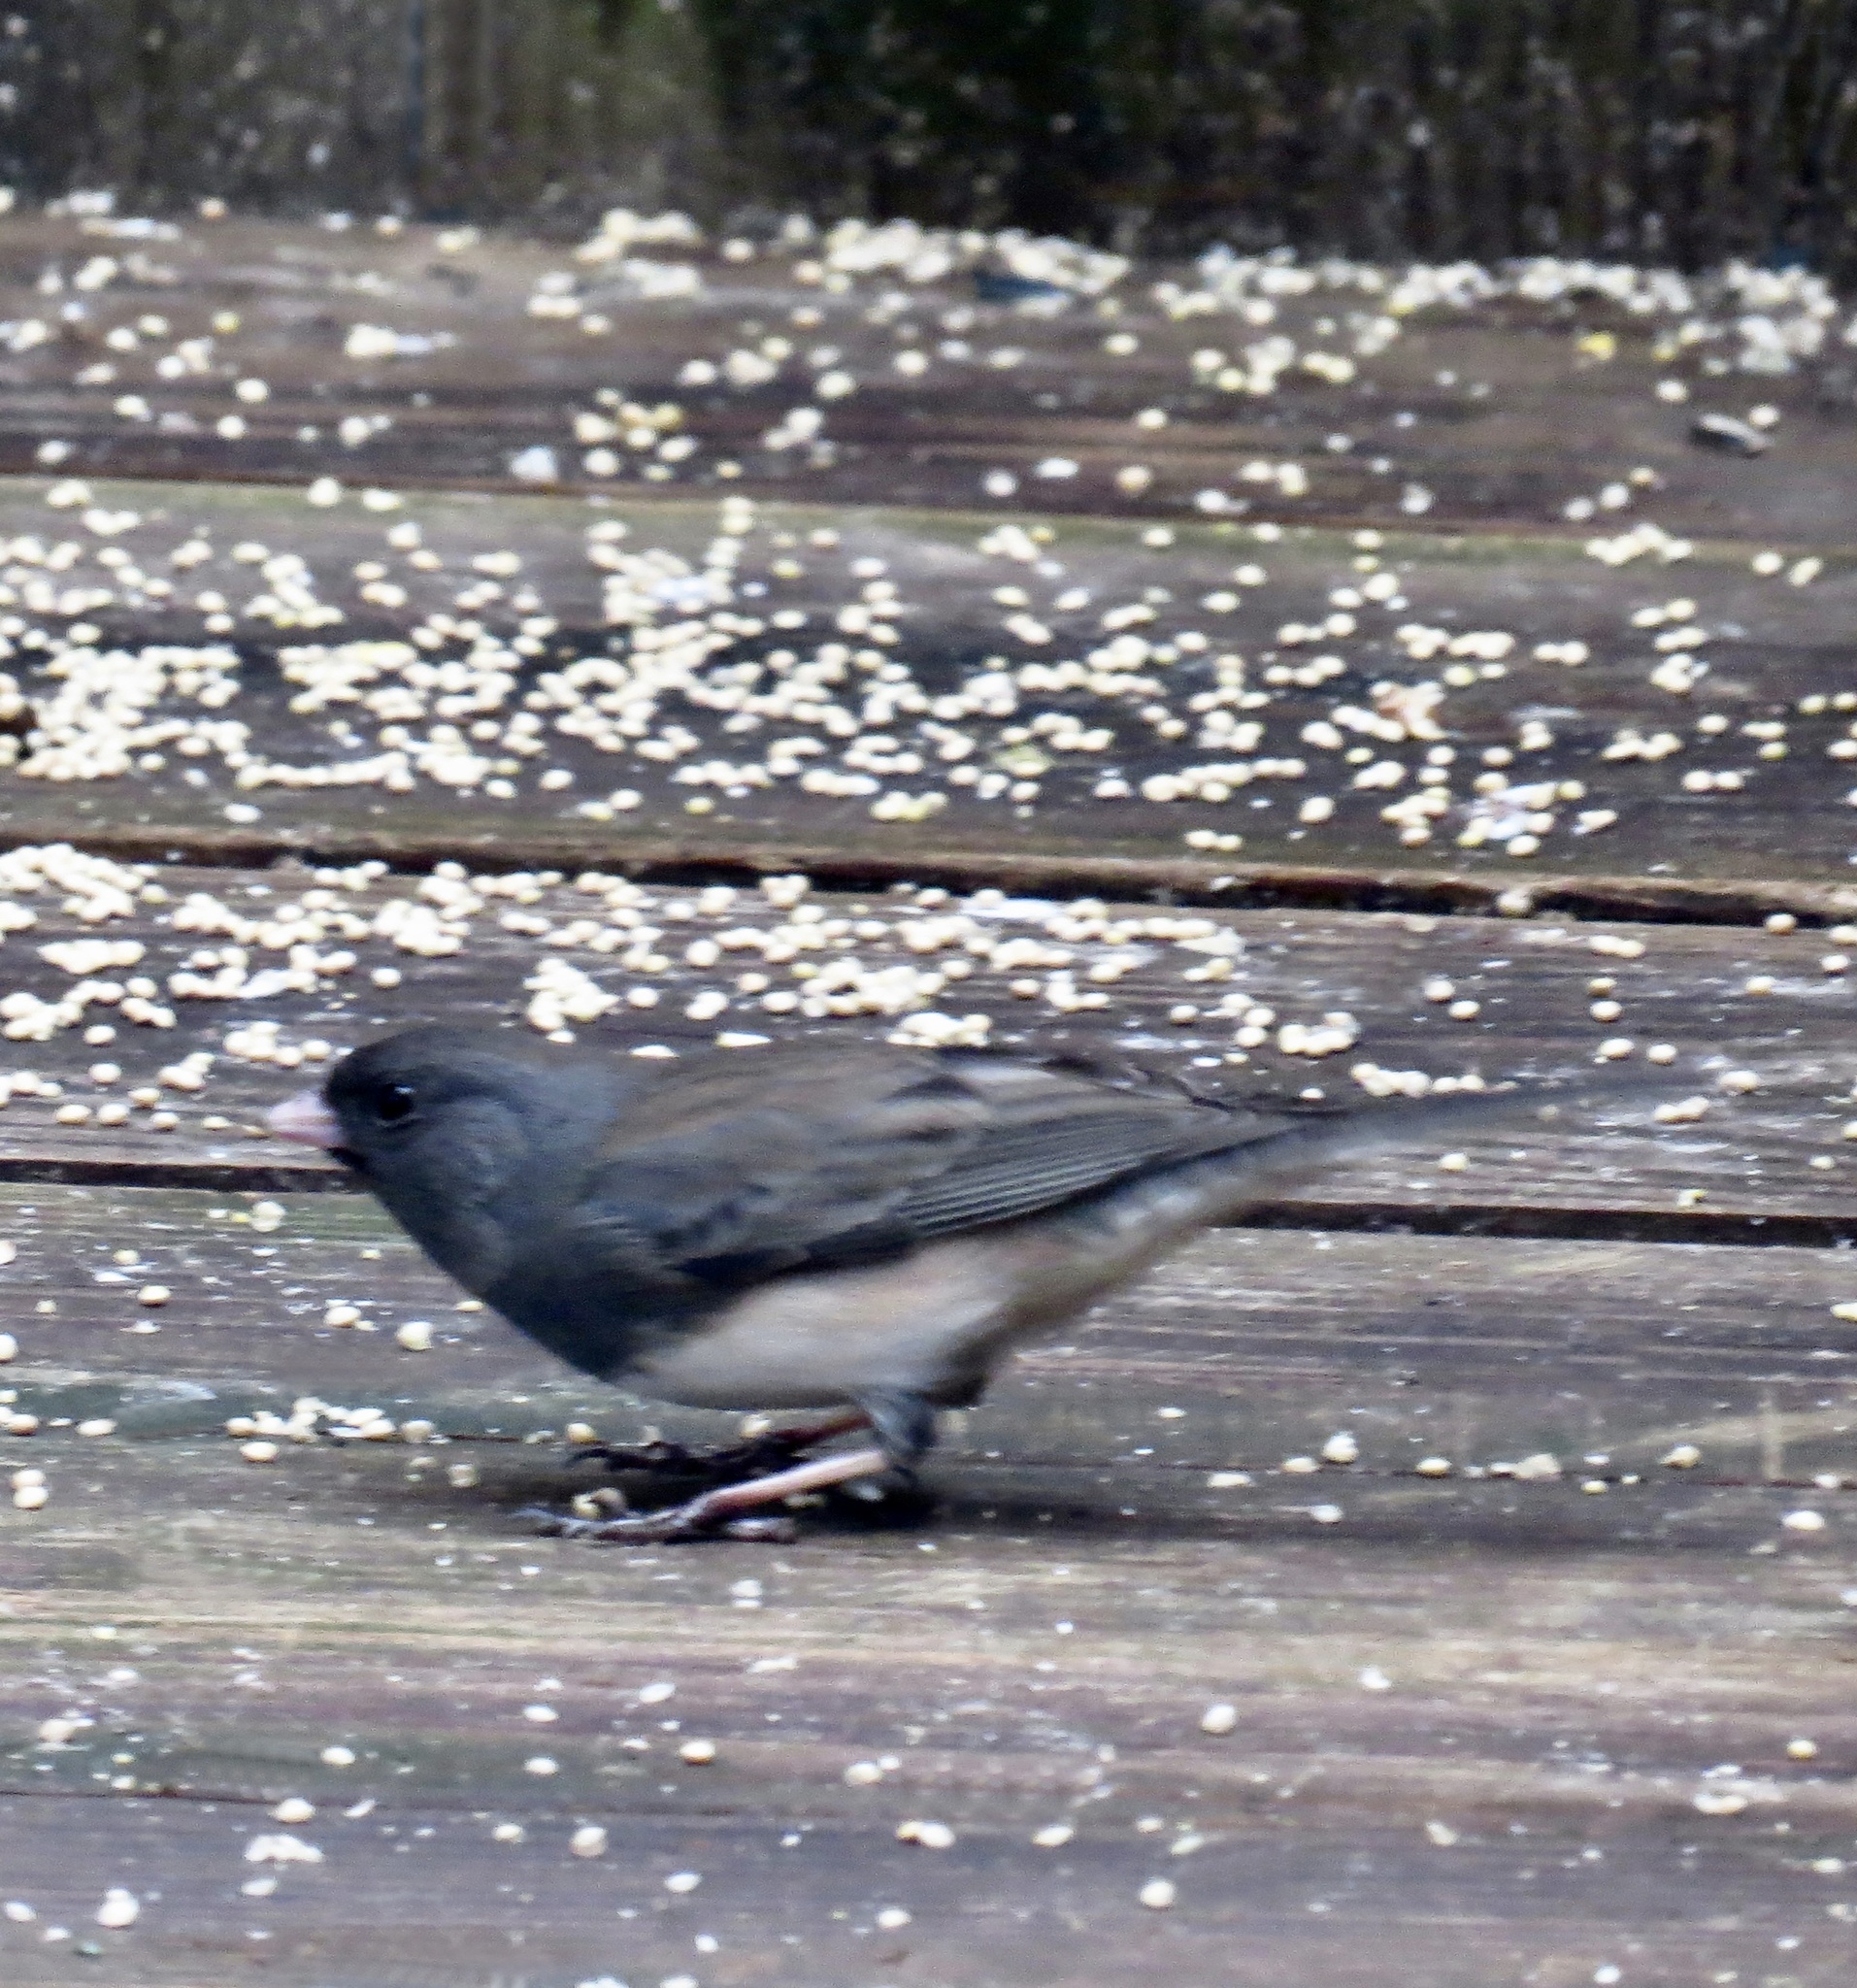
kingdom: Animalia
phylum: Chordata
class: Aves
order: Passeriformes
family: Passerellidae
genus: Junco
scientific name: Junco hyemalis
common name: Dark-eyed junco
